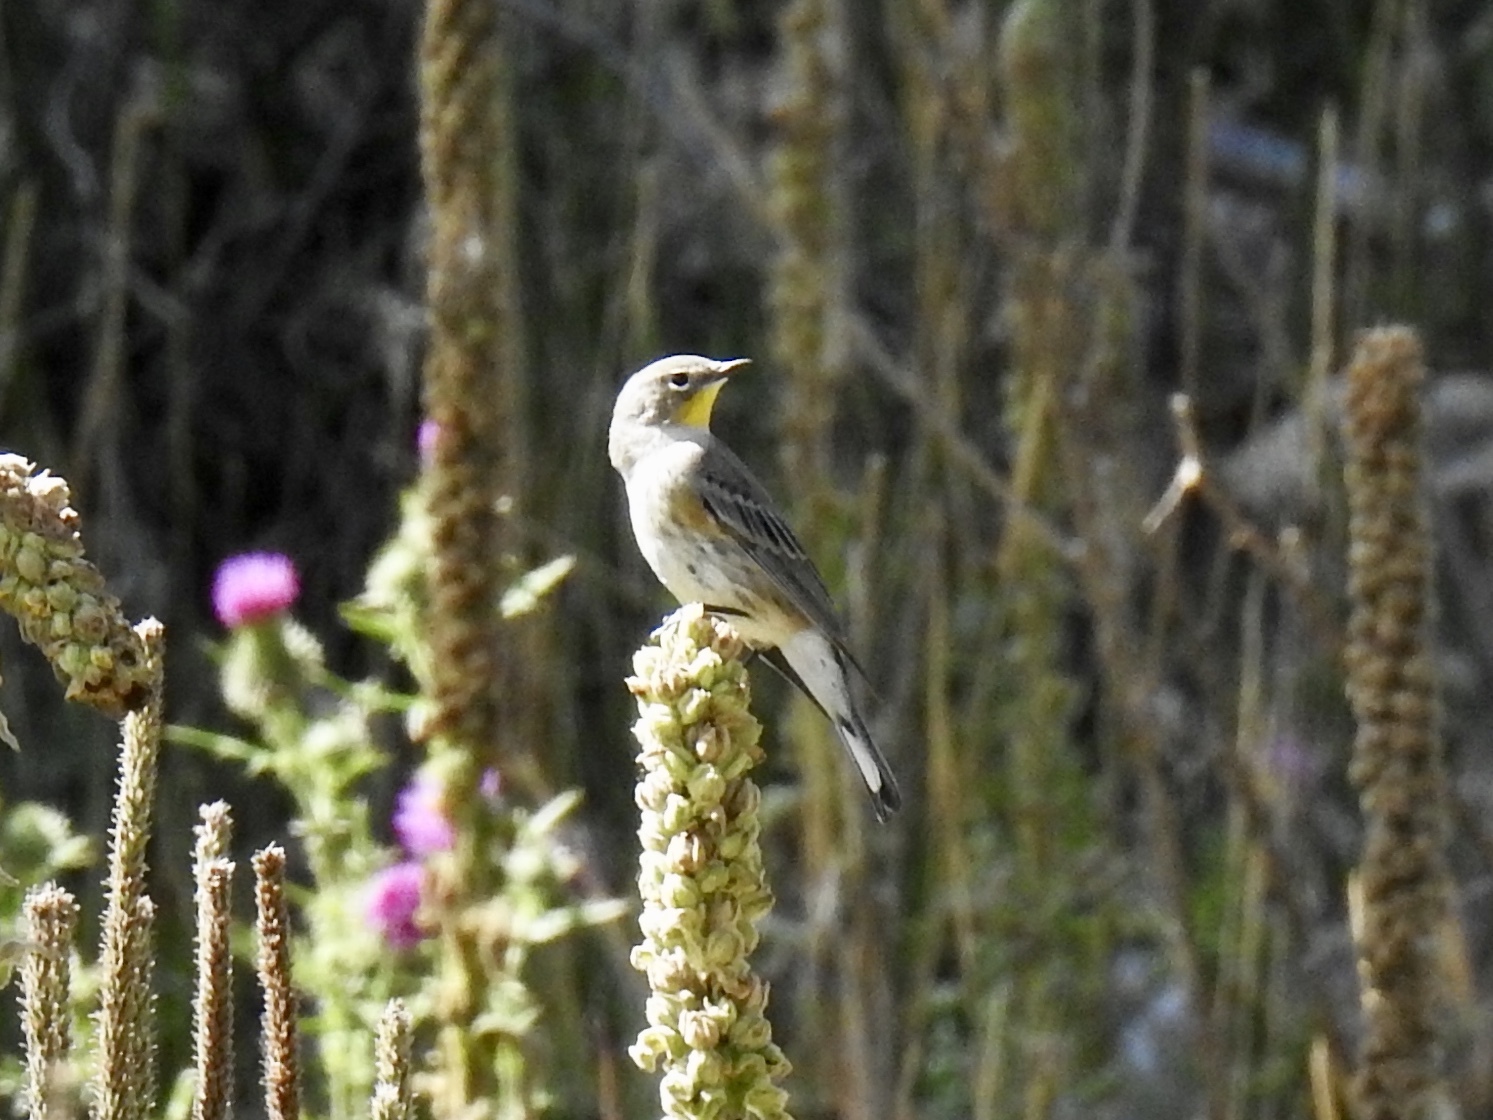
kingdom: Animalia
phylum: Chordata
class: Aves
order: Passeriformes
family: Parulidae
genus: Setophaga
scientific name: Setophaga coronata
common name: Myrtle warbler
